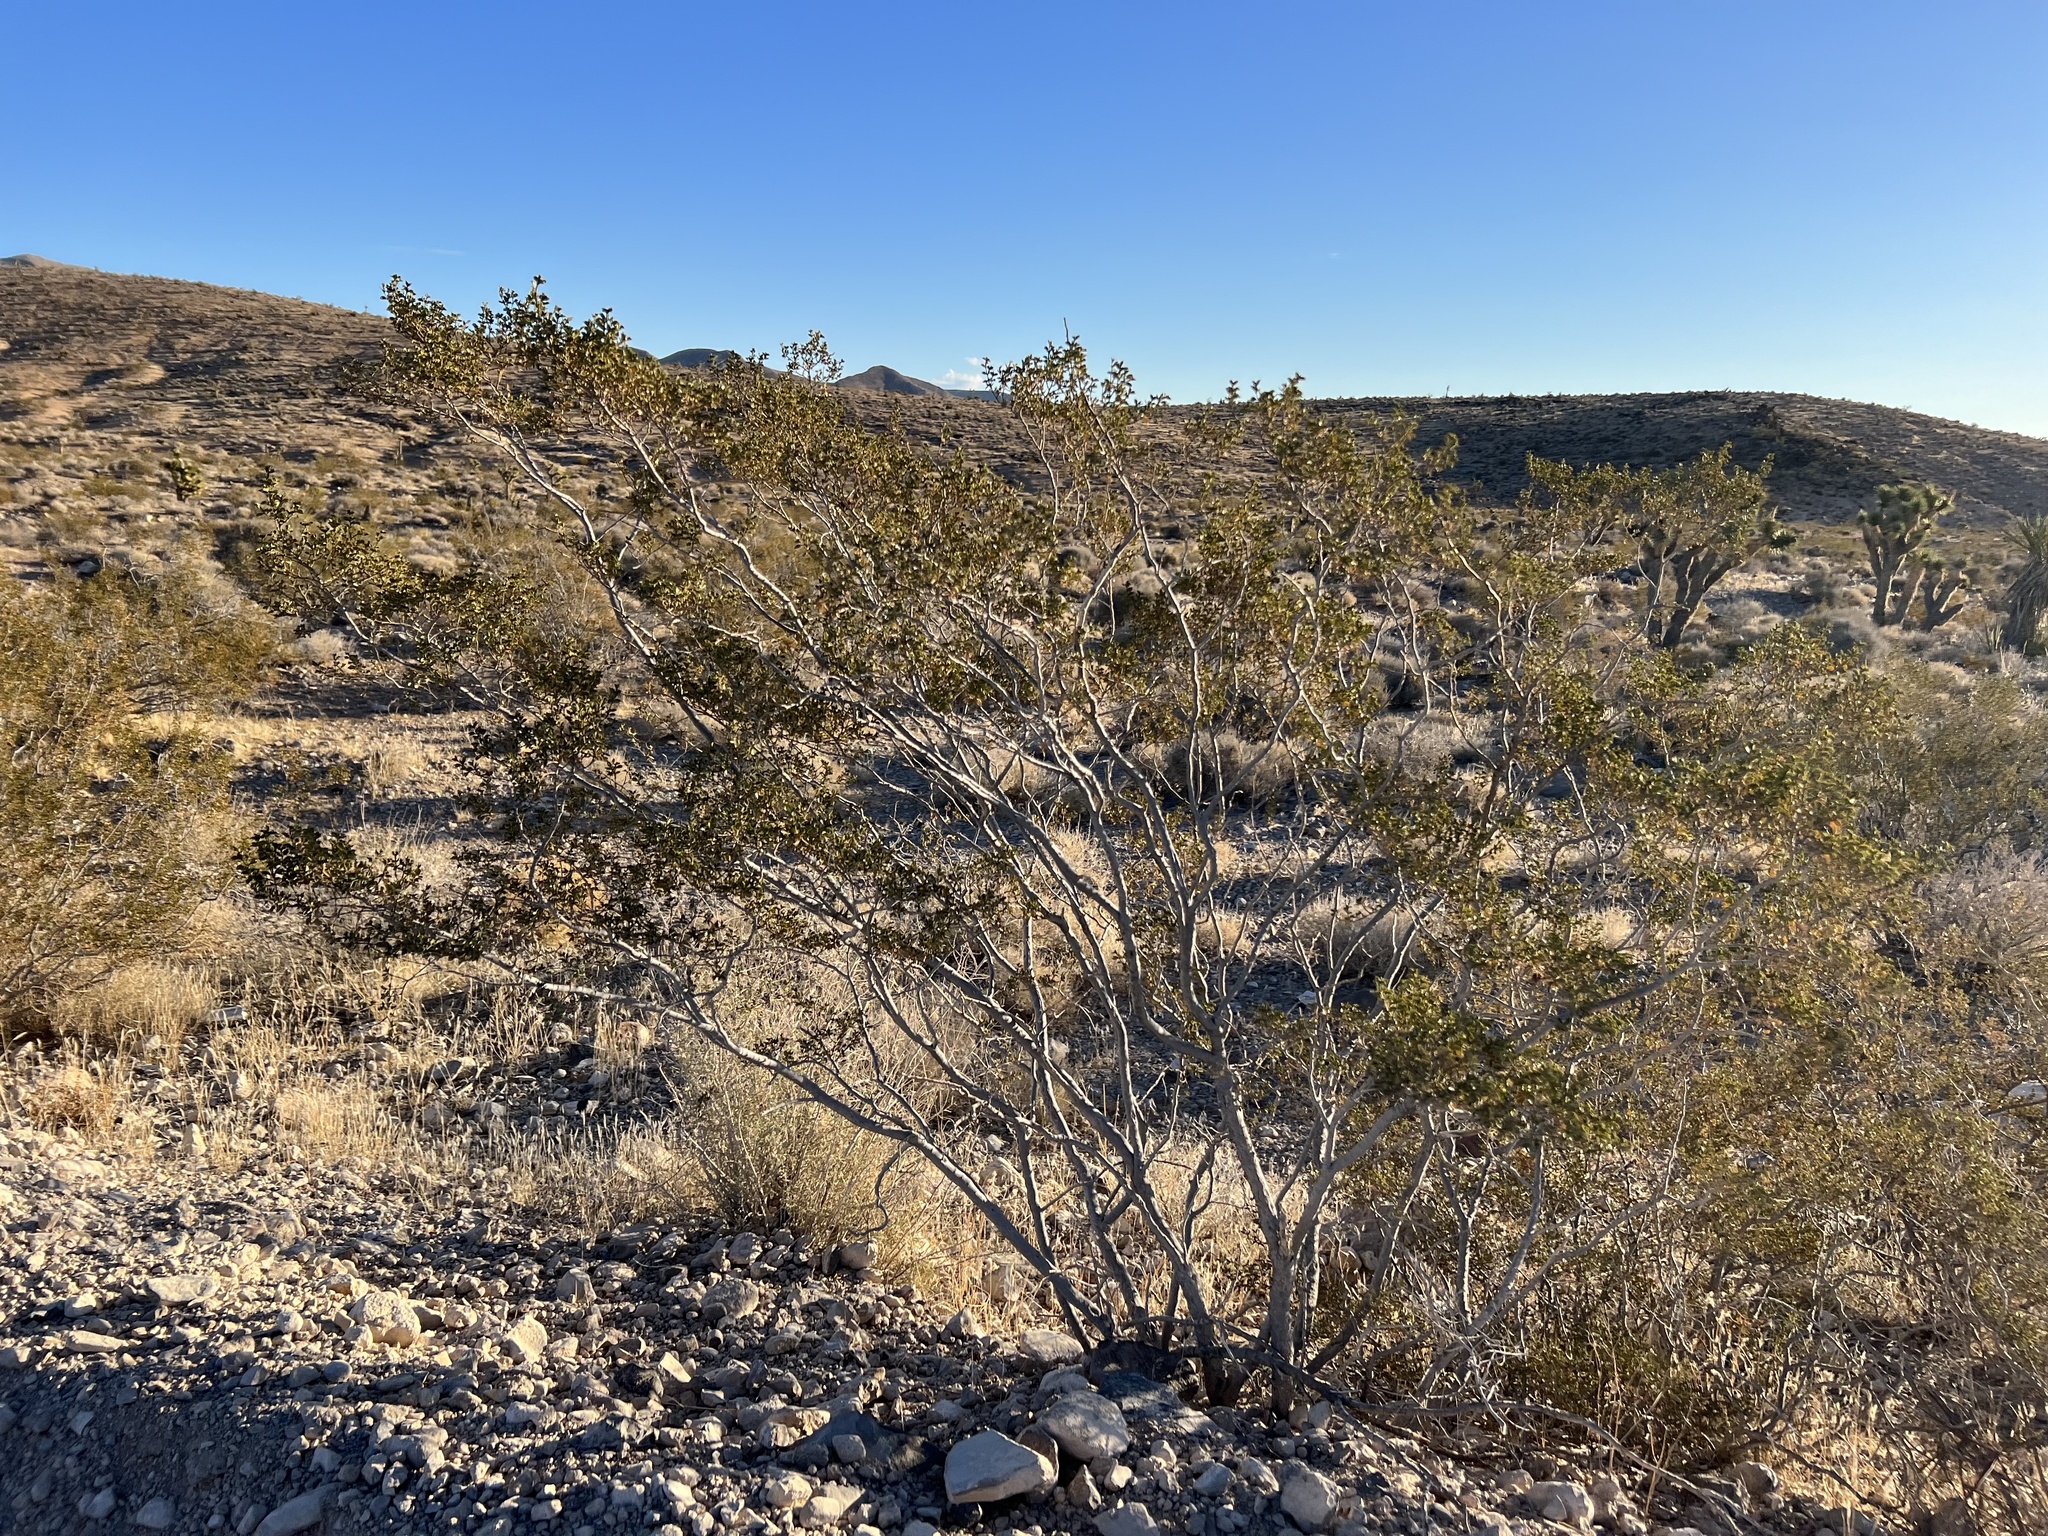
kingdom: Plantae
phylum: Tracheophyta
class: Magnoliopsida
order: Zygophyllales
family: Zygophyllaceae
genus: Larrea
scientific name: Larrea tridentata
